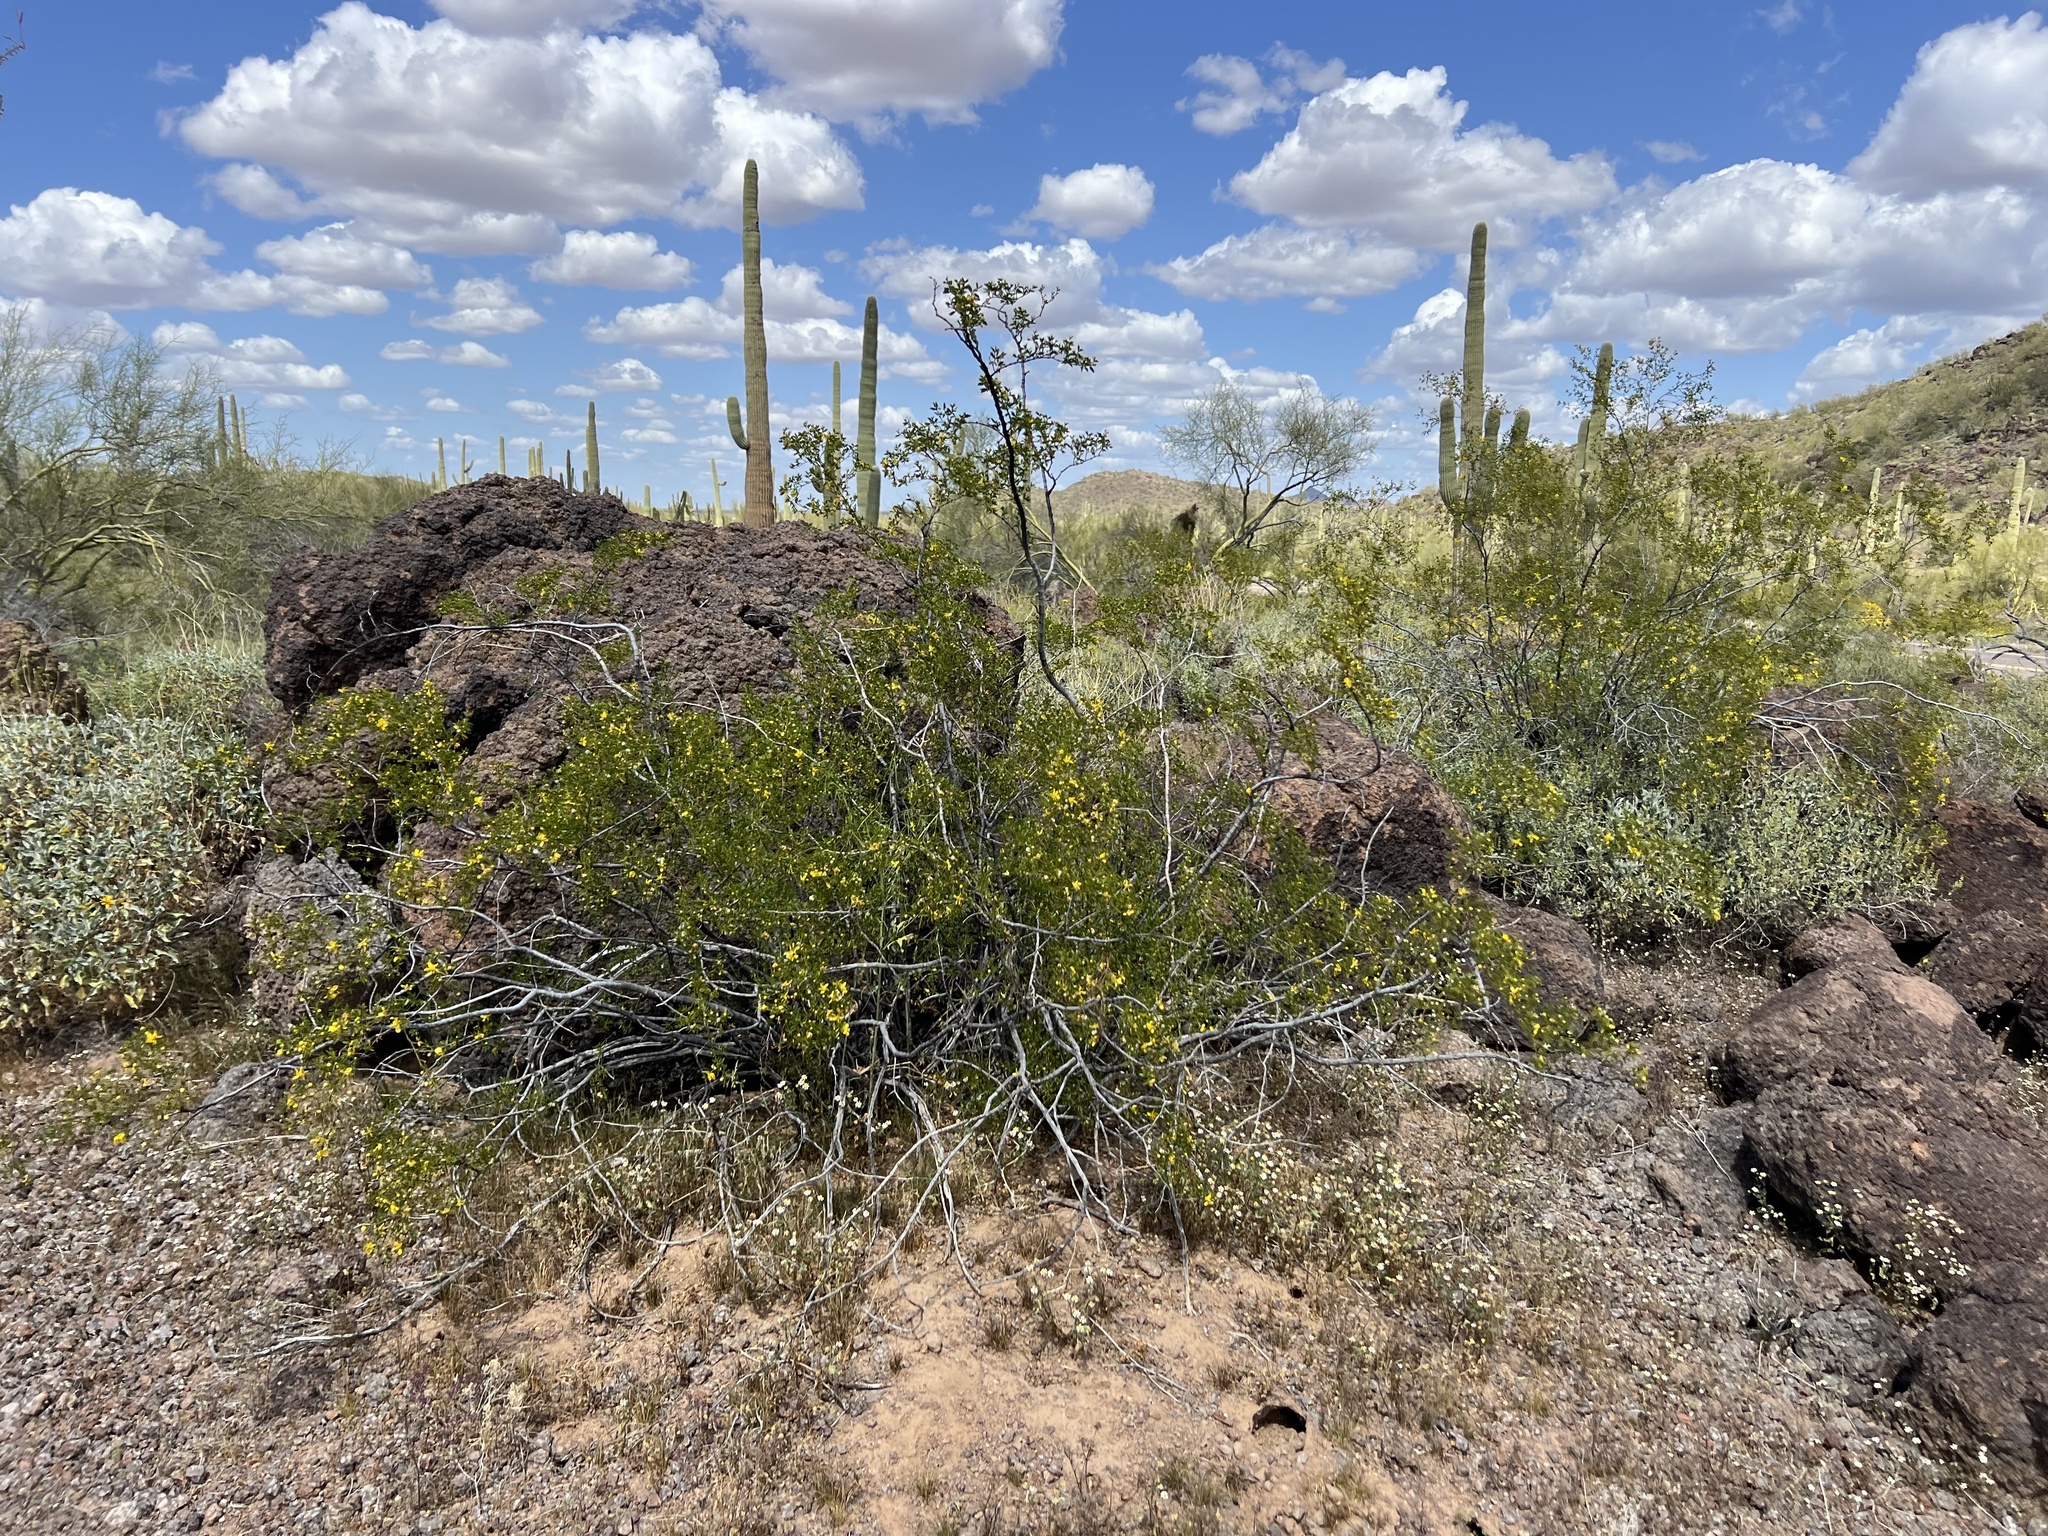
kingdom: Plantae
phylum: Tracheophyta
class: Magnoliopsida
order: Zygophyllales
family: Zygophyllaceae
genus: Larrea
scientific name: Larrea tridentata
